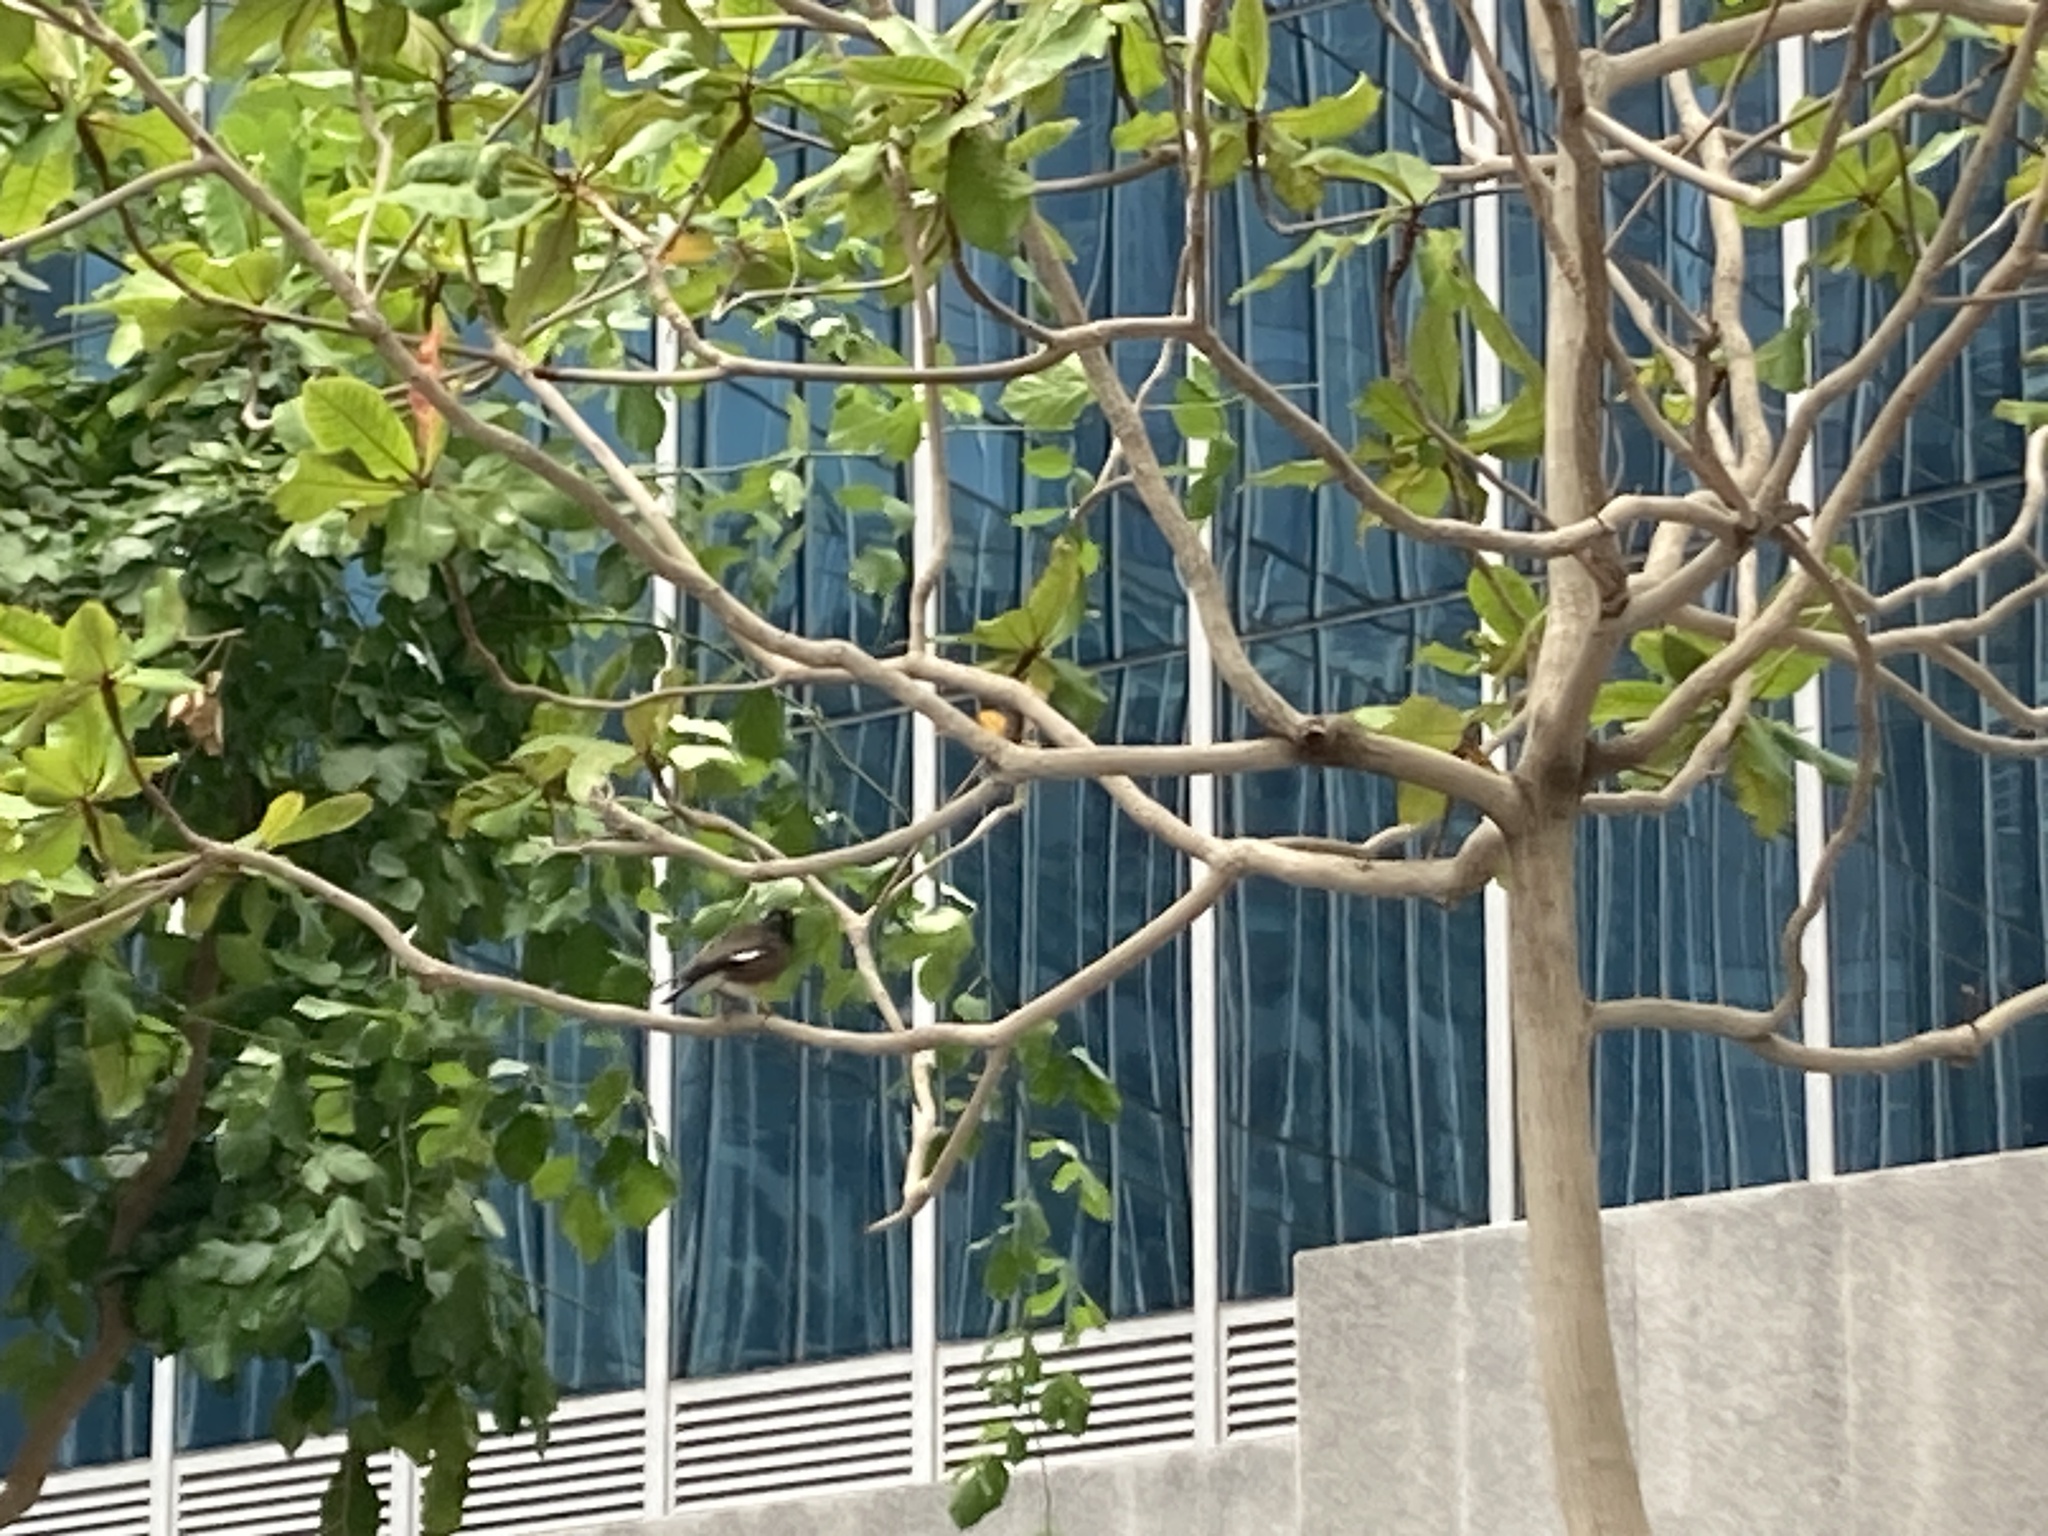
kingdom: Animalia
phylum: Chordata
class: Aves
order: Passeriformes
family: Sturnidae
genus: Acridotheres
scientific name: Acridotheres tristis
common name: Common myna
